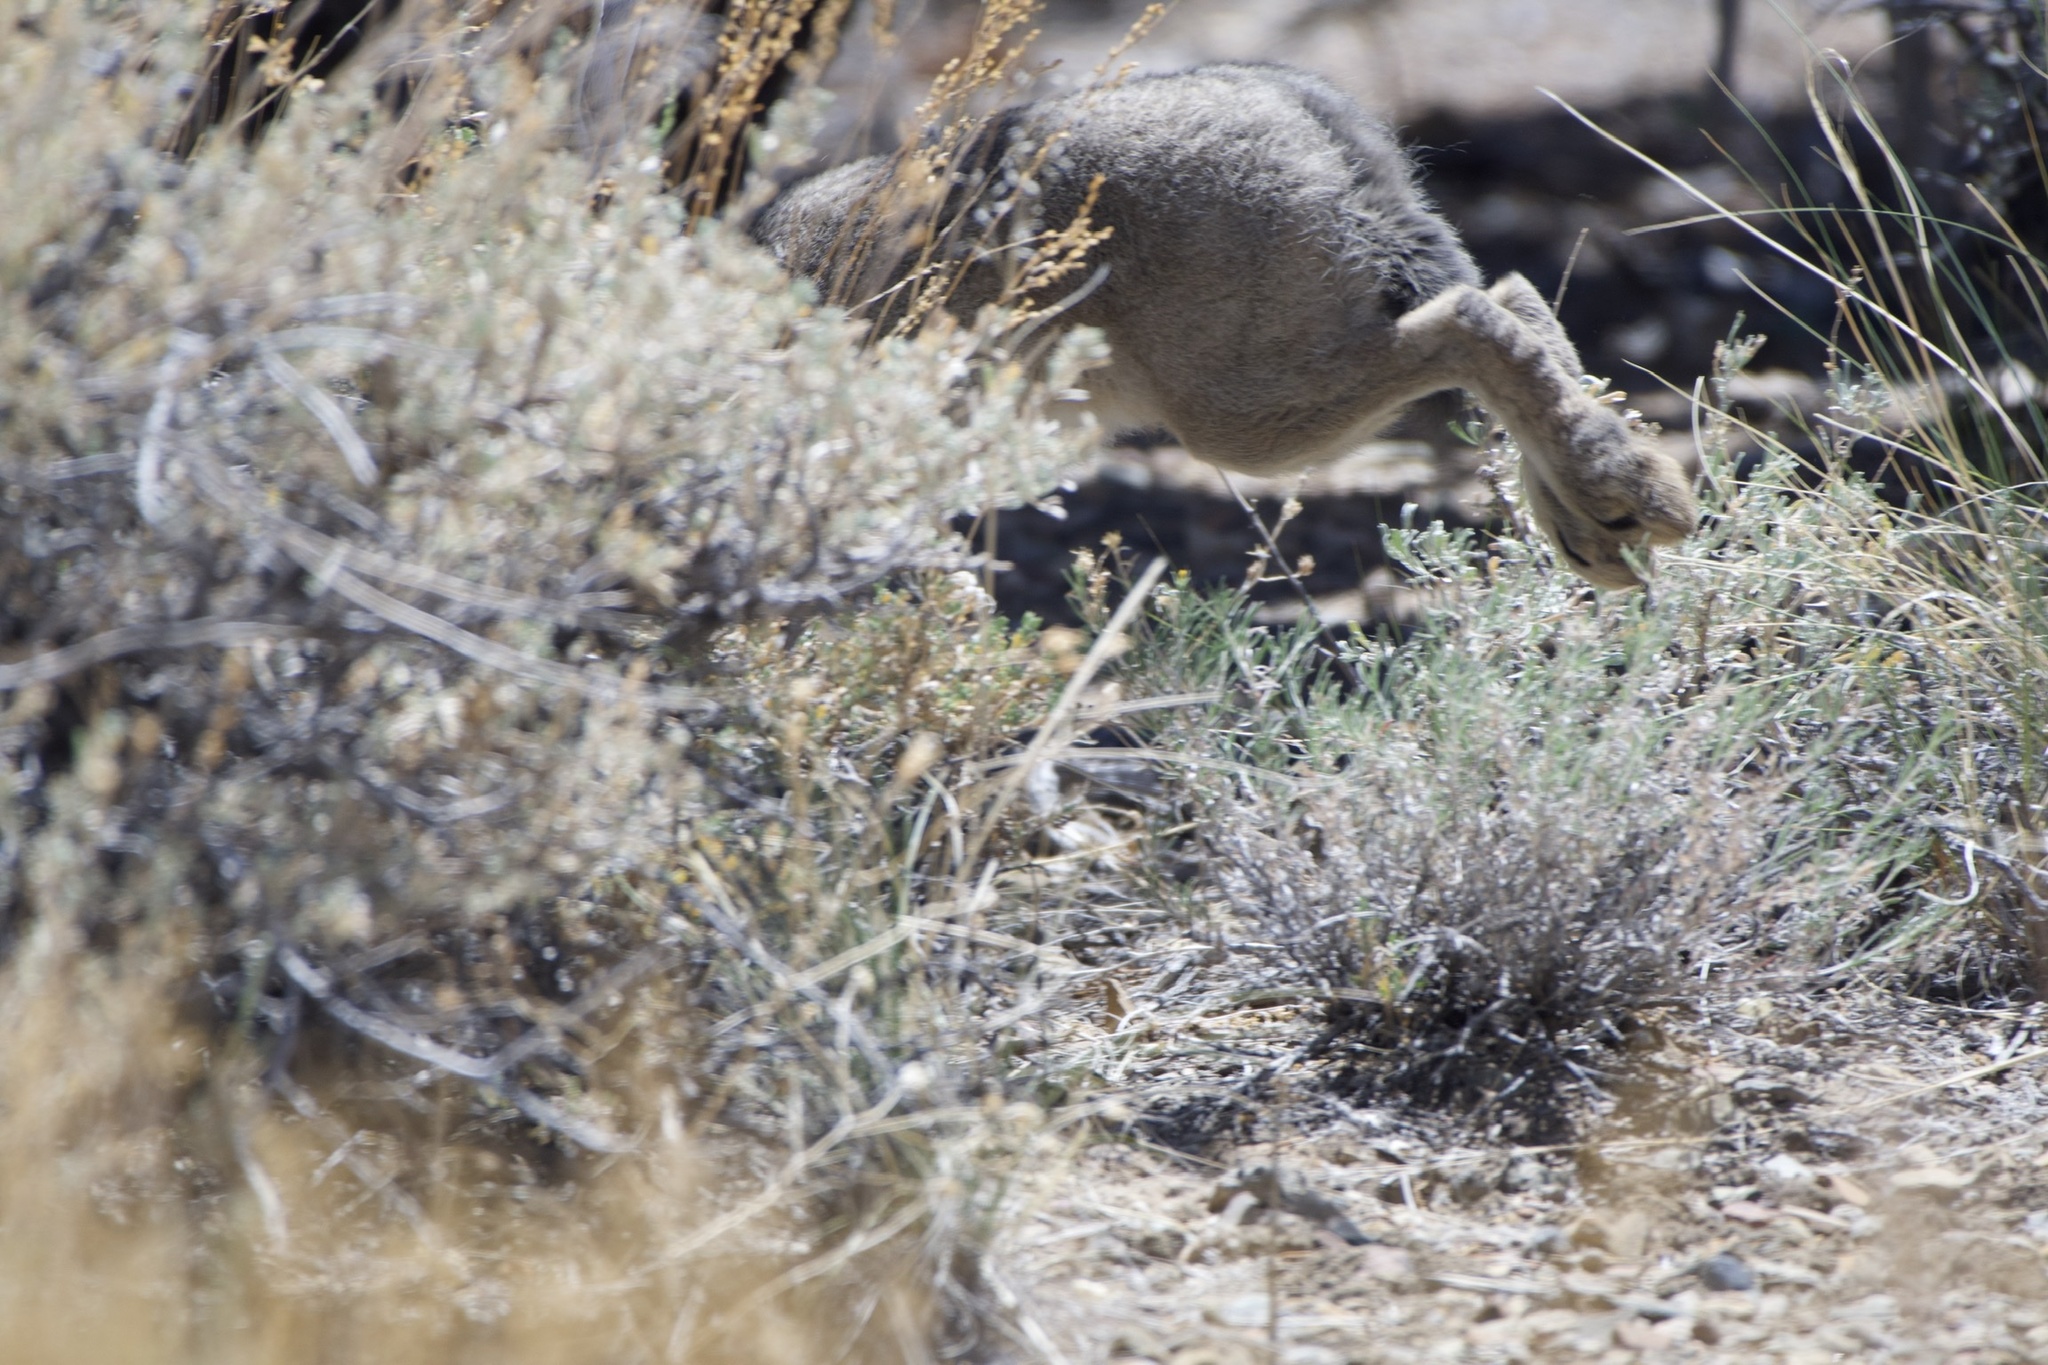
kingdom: Animalia
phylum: Chordata
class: Mammalia
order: Lagomorpha
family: Leporidae
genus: Lepus
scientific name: Lepus californicus
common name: Black-tailed jackrabbit
